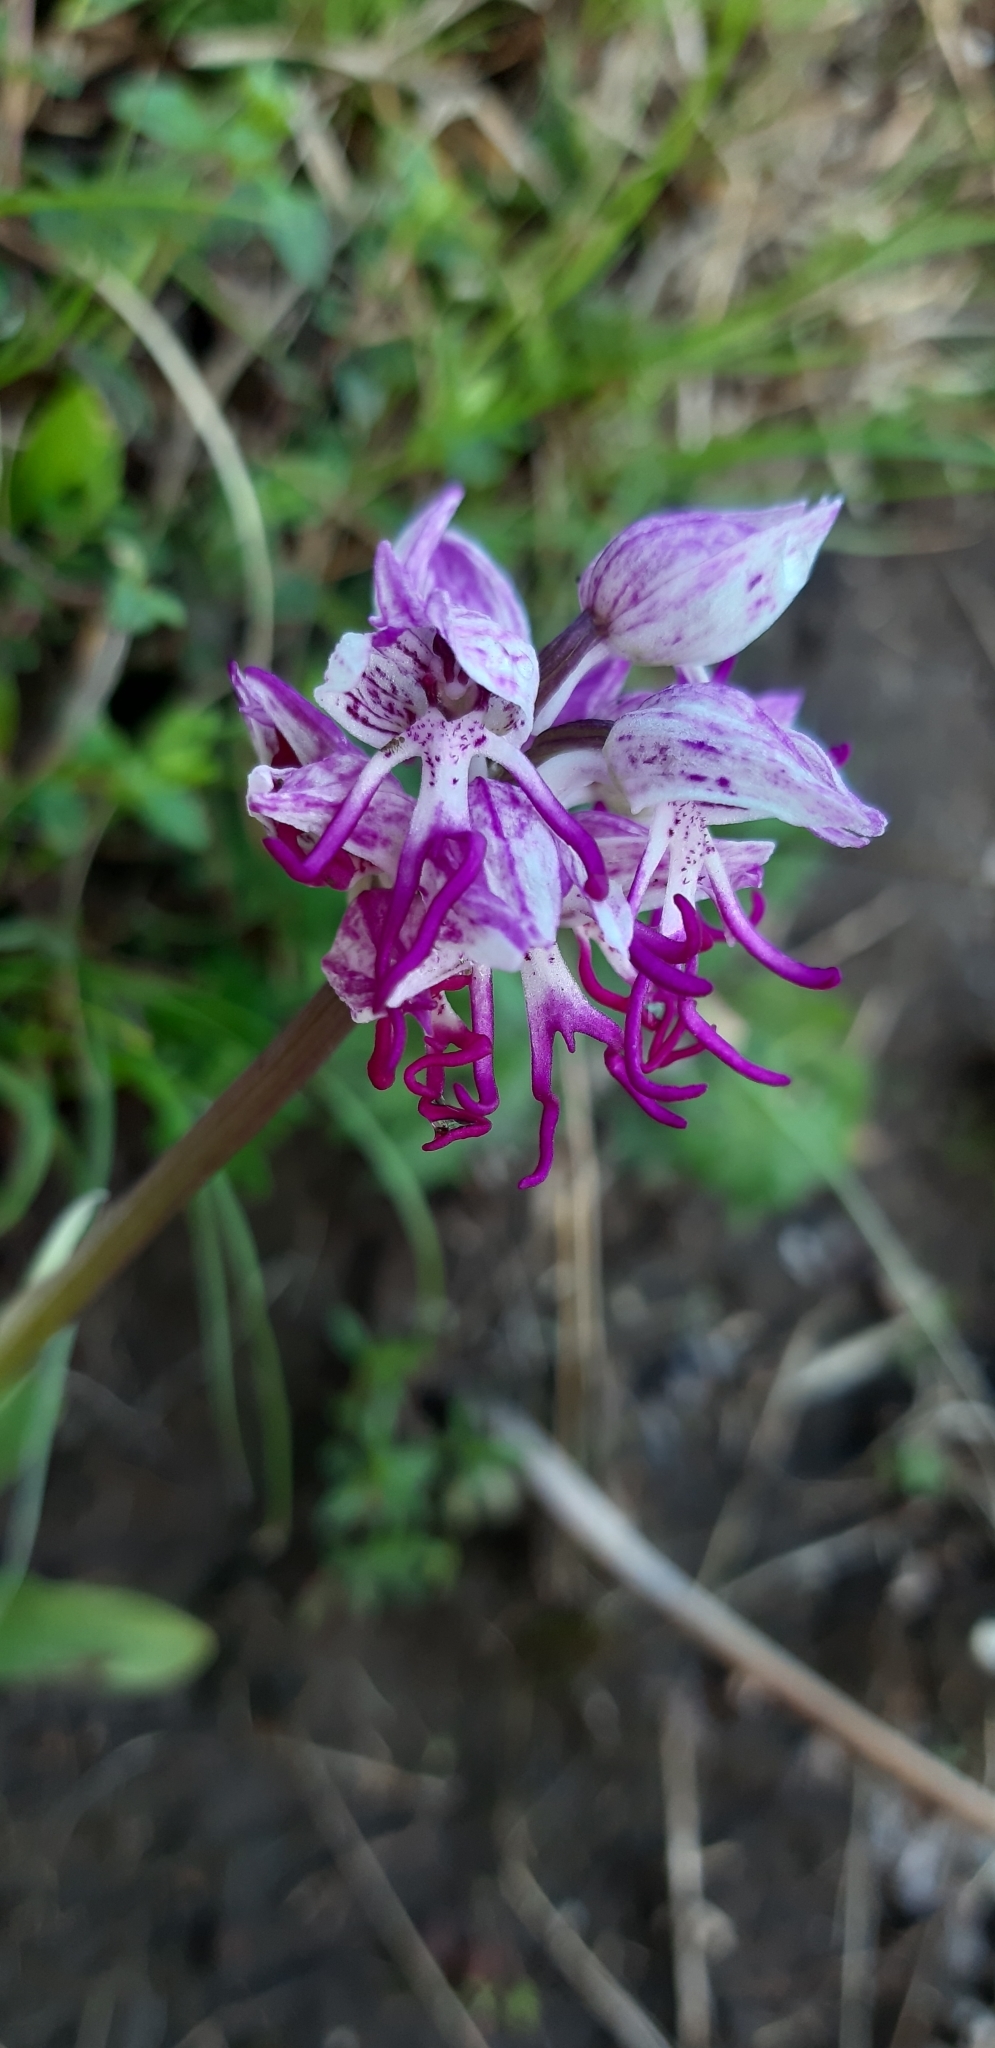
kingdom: Plantae
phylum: Tracheophyta
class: Liliopsida
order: Asparagales
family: Orchidaceae
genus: Orchis
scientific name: Orchis simia
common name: Monkey orchid
